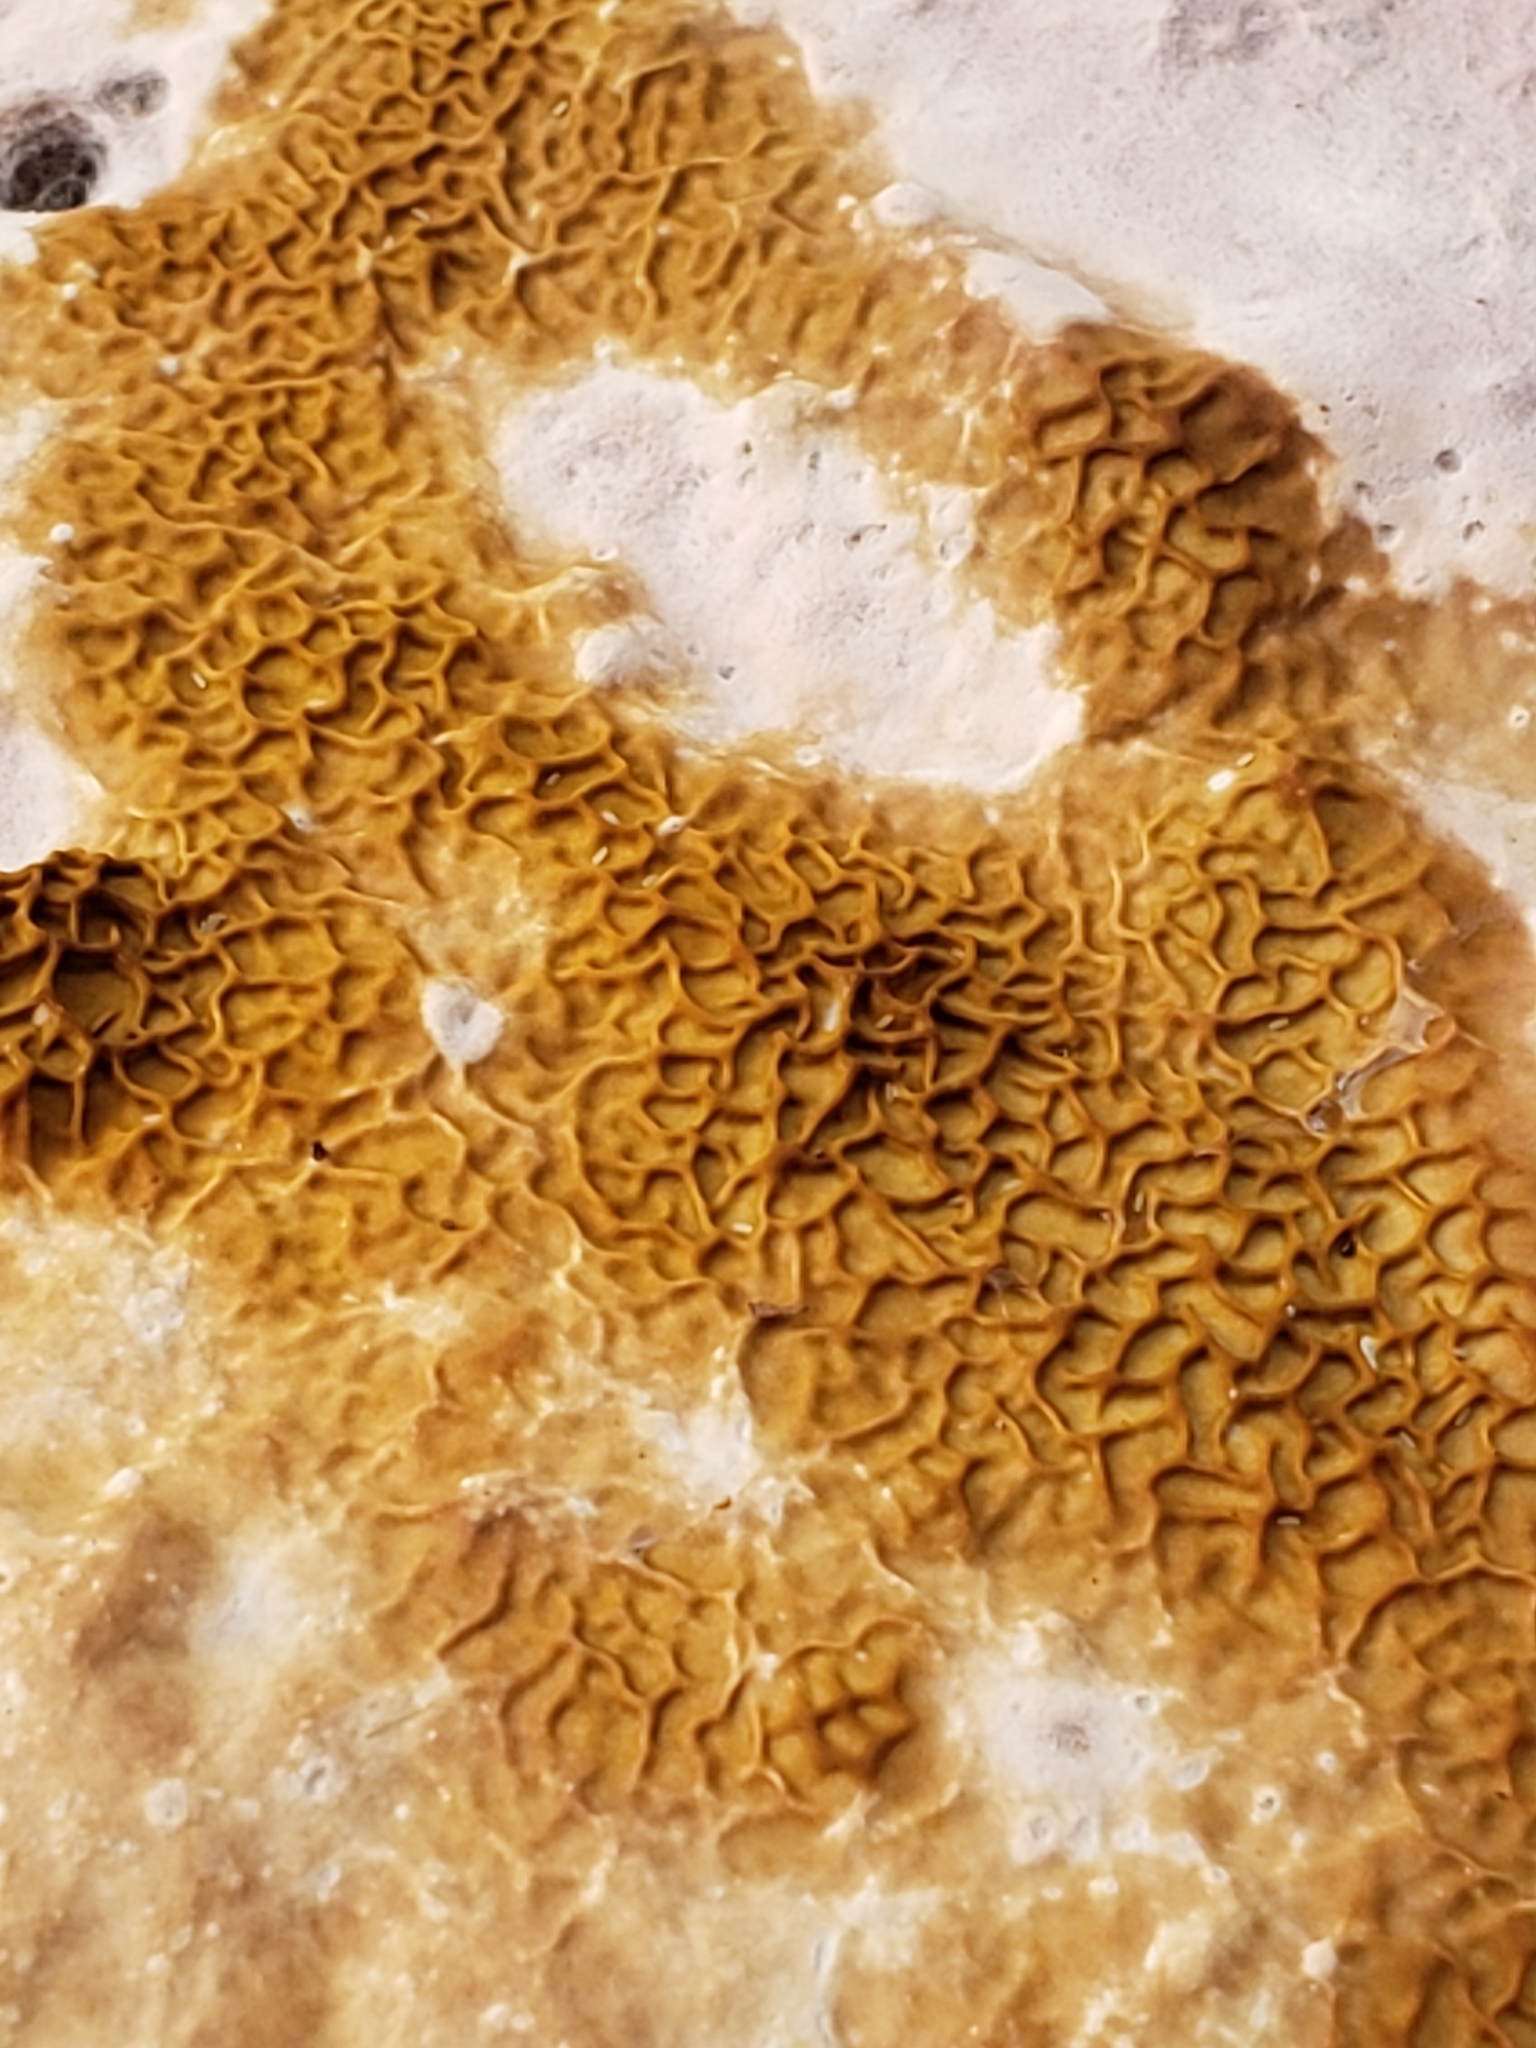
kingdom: Fungi
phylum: Basidiomycota
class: Agaricomycetes
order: Boletales
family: Serpulaceae
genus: Serpula
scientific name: Serpula himantioides
